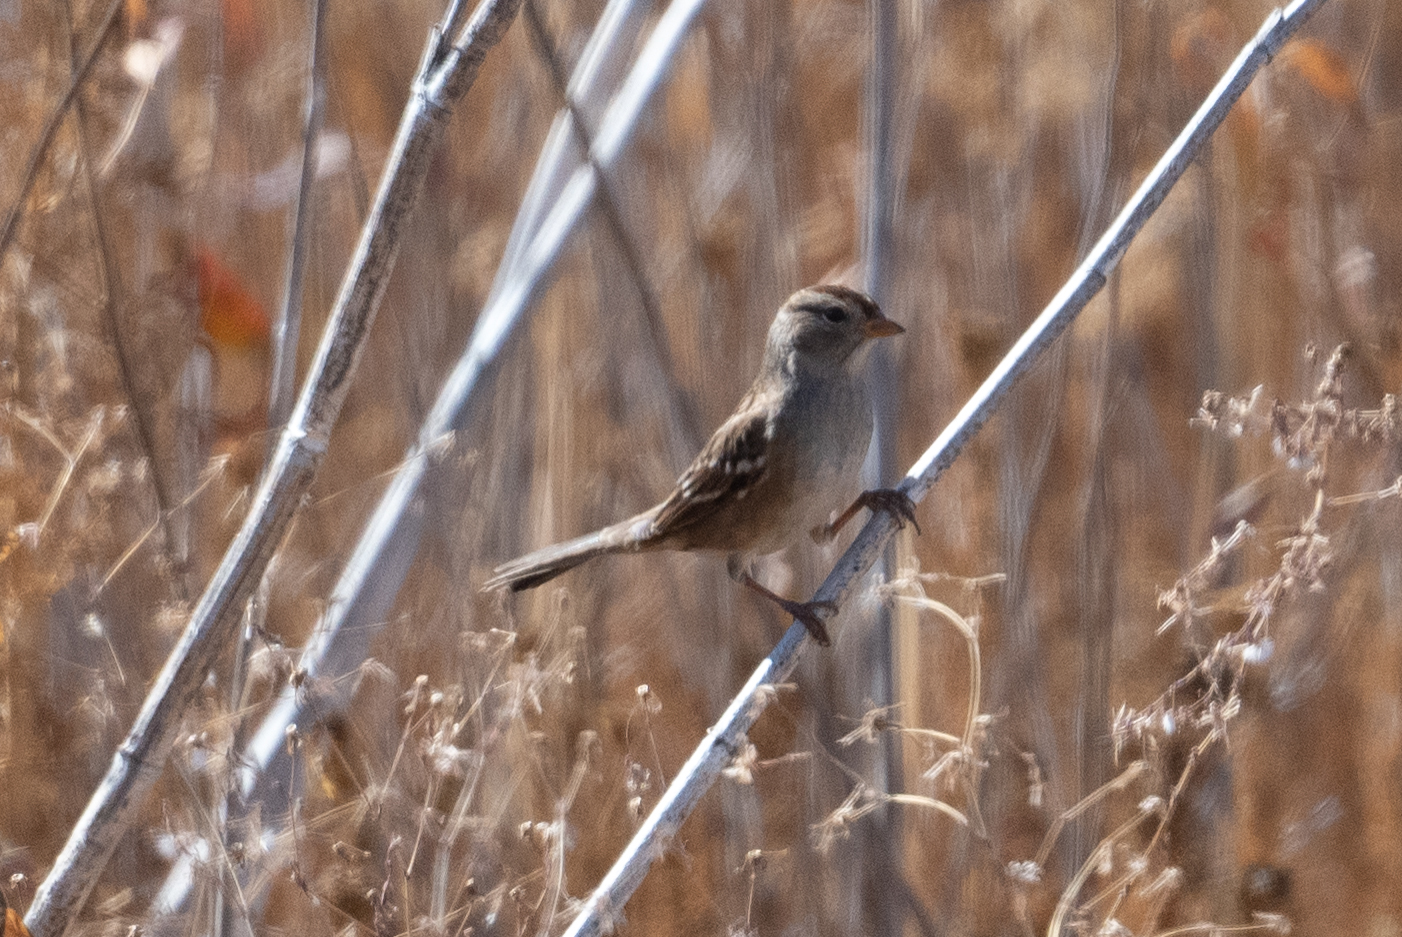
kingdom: Animalia
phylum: Chordata
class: Aves
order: Passeriformes
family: Passerellidae
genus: Zonotrichia
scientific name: Zonotrichia leucophrys
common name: White-crowned sparrow
